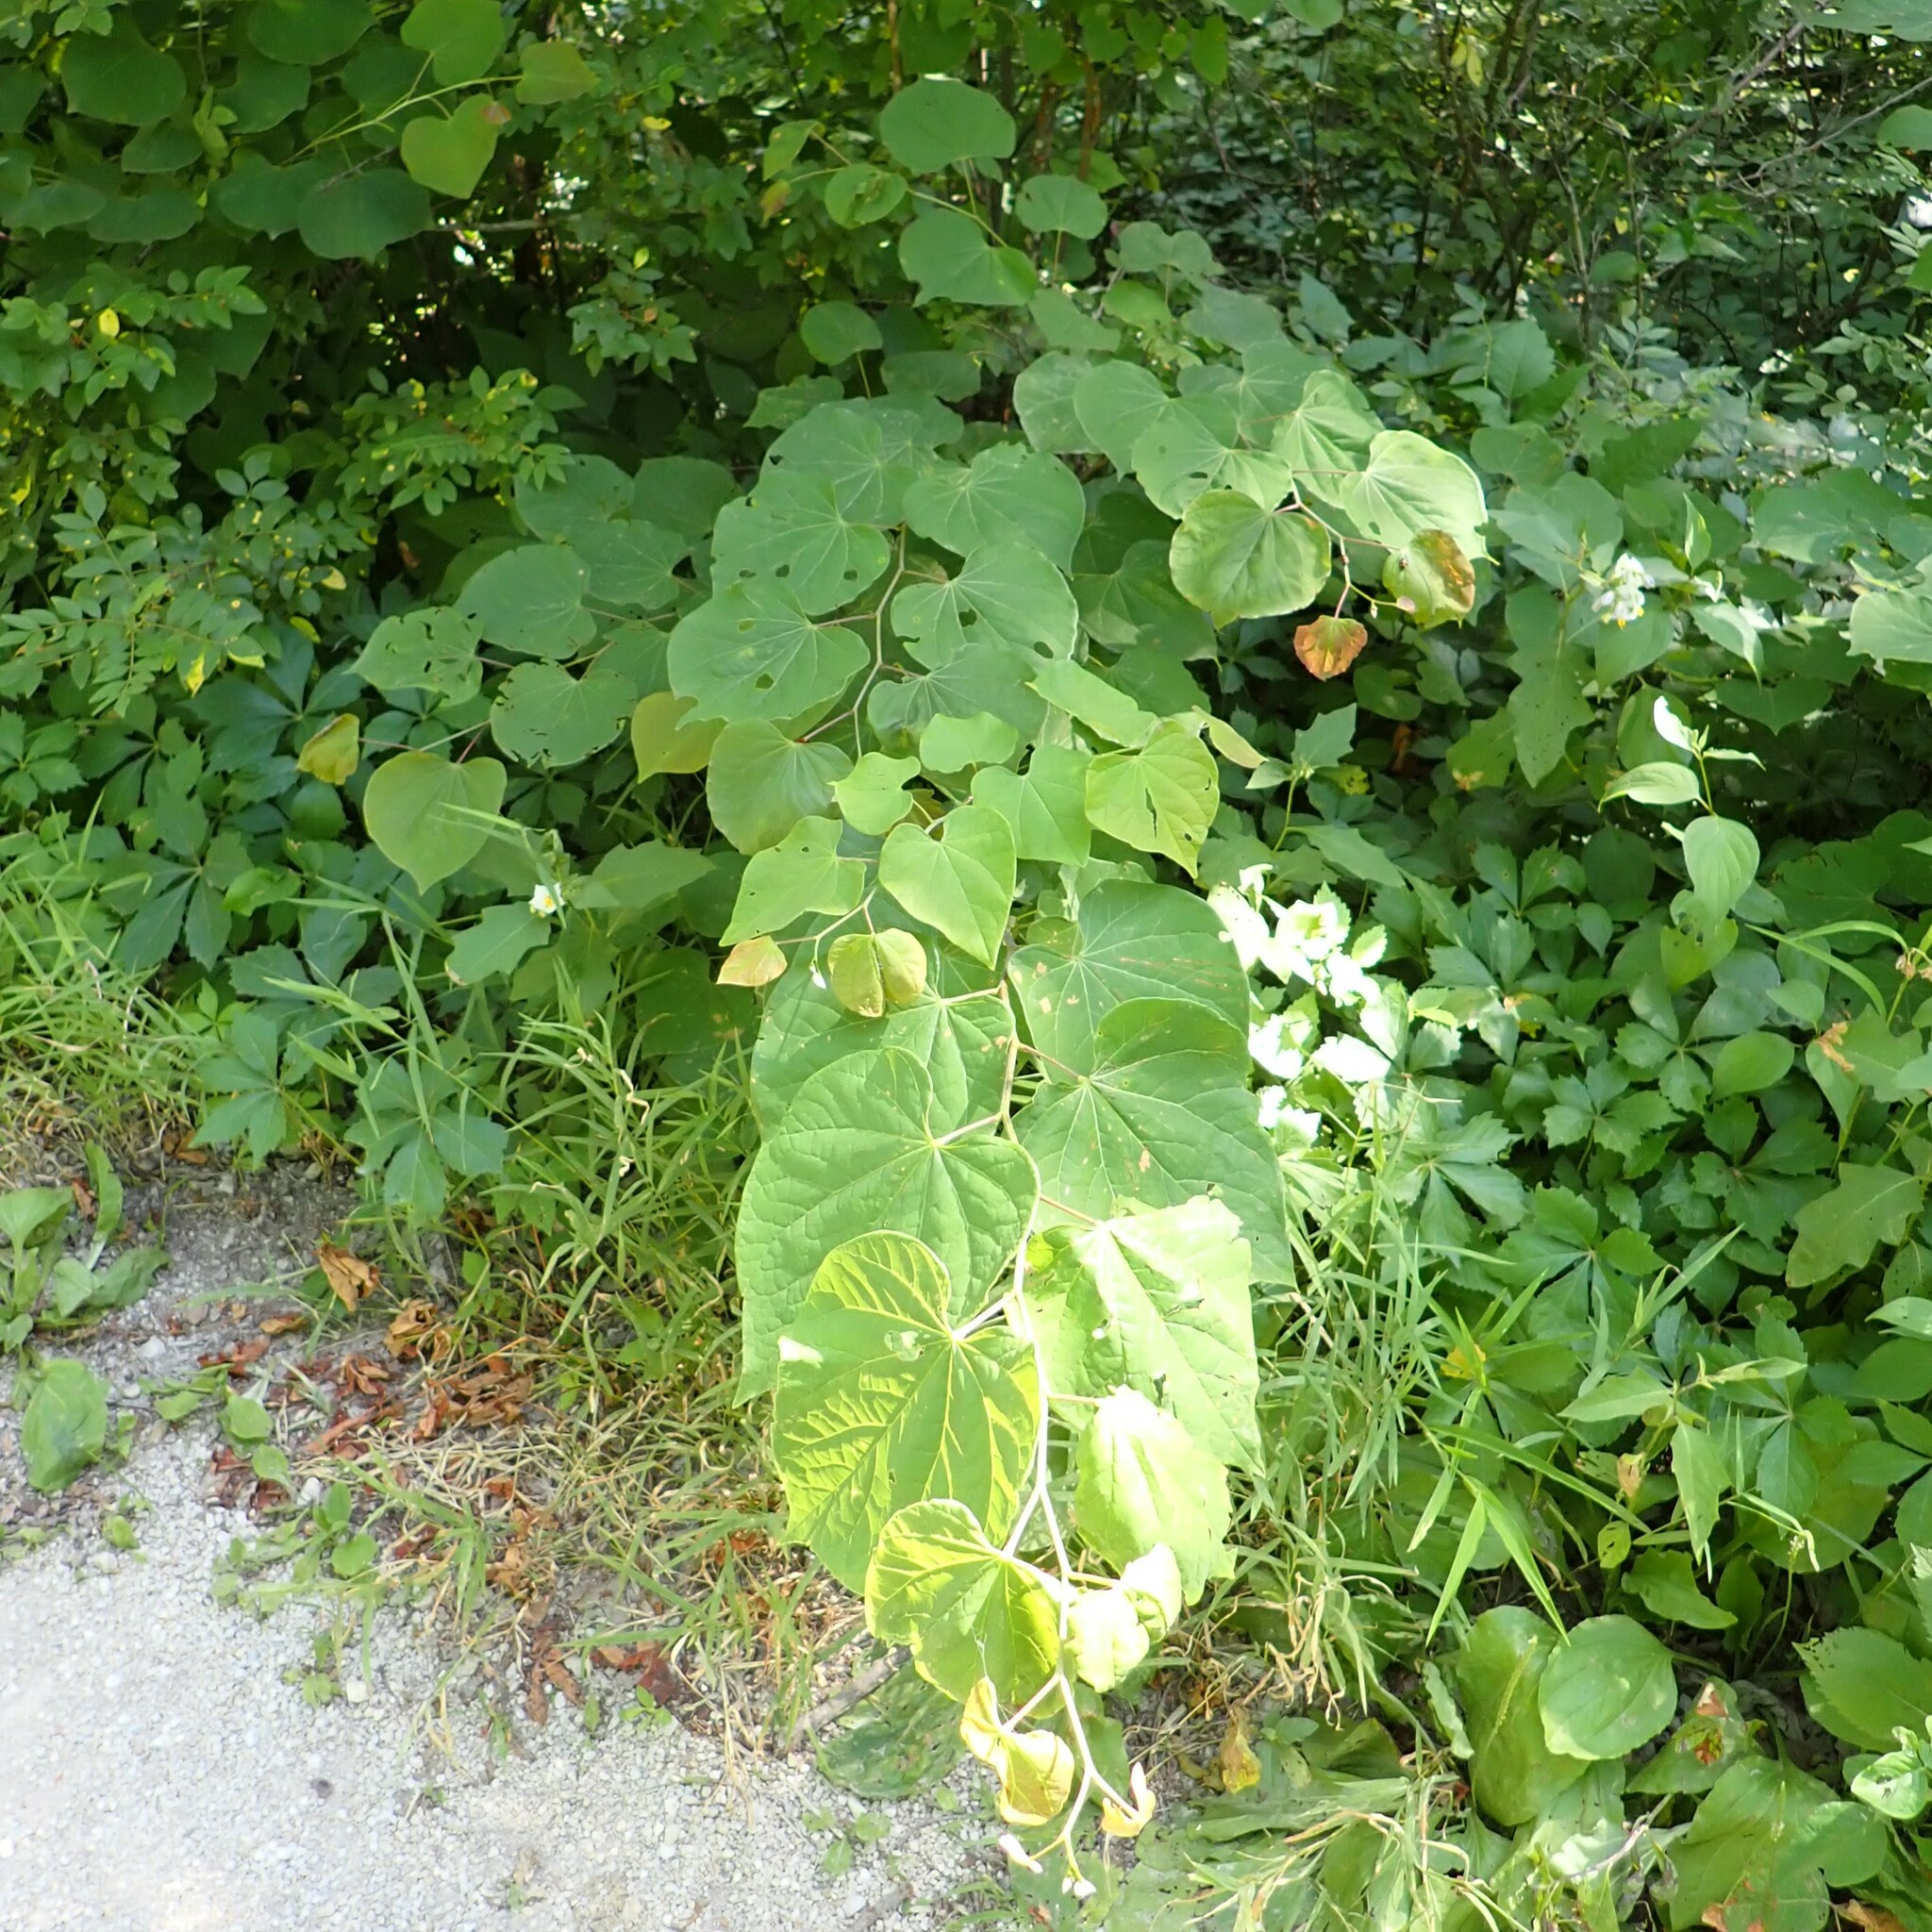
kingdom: Plantae
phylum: Tracheophyta
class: Magnoliopsida
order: Fabales
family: Fabaceae
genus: Cercis
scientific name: Cercis canadensis
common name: Eastern redbud
